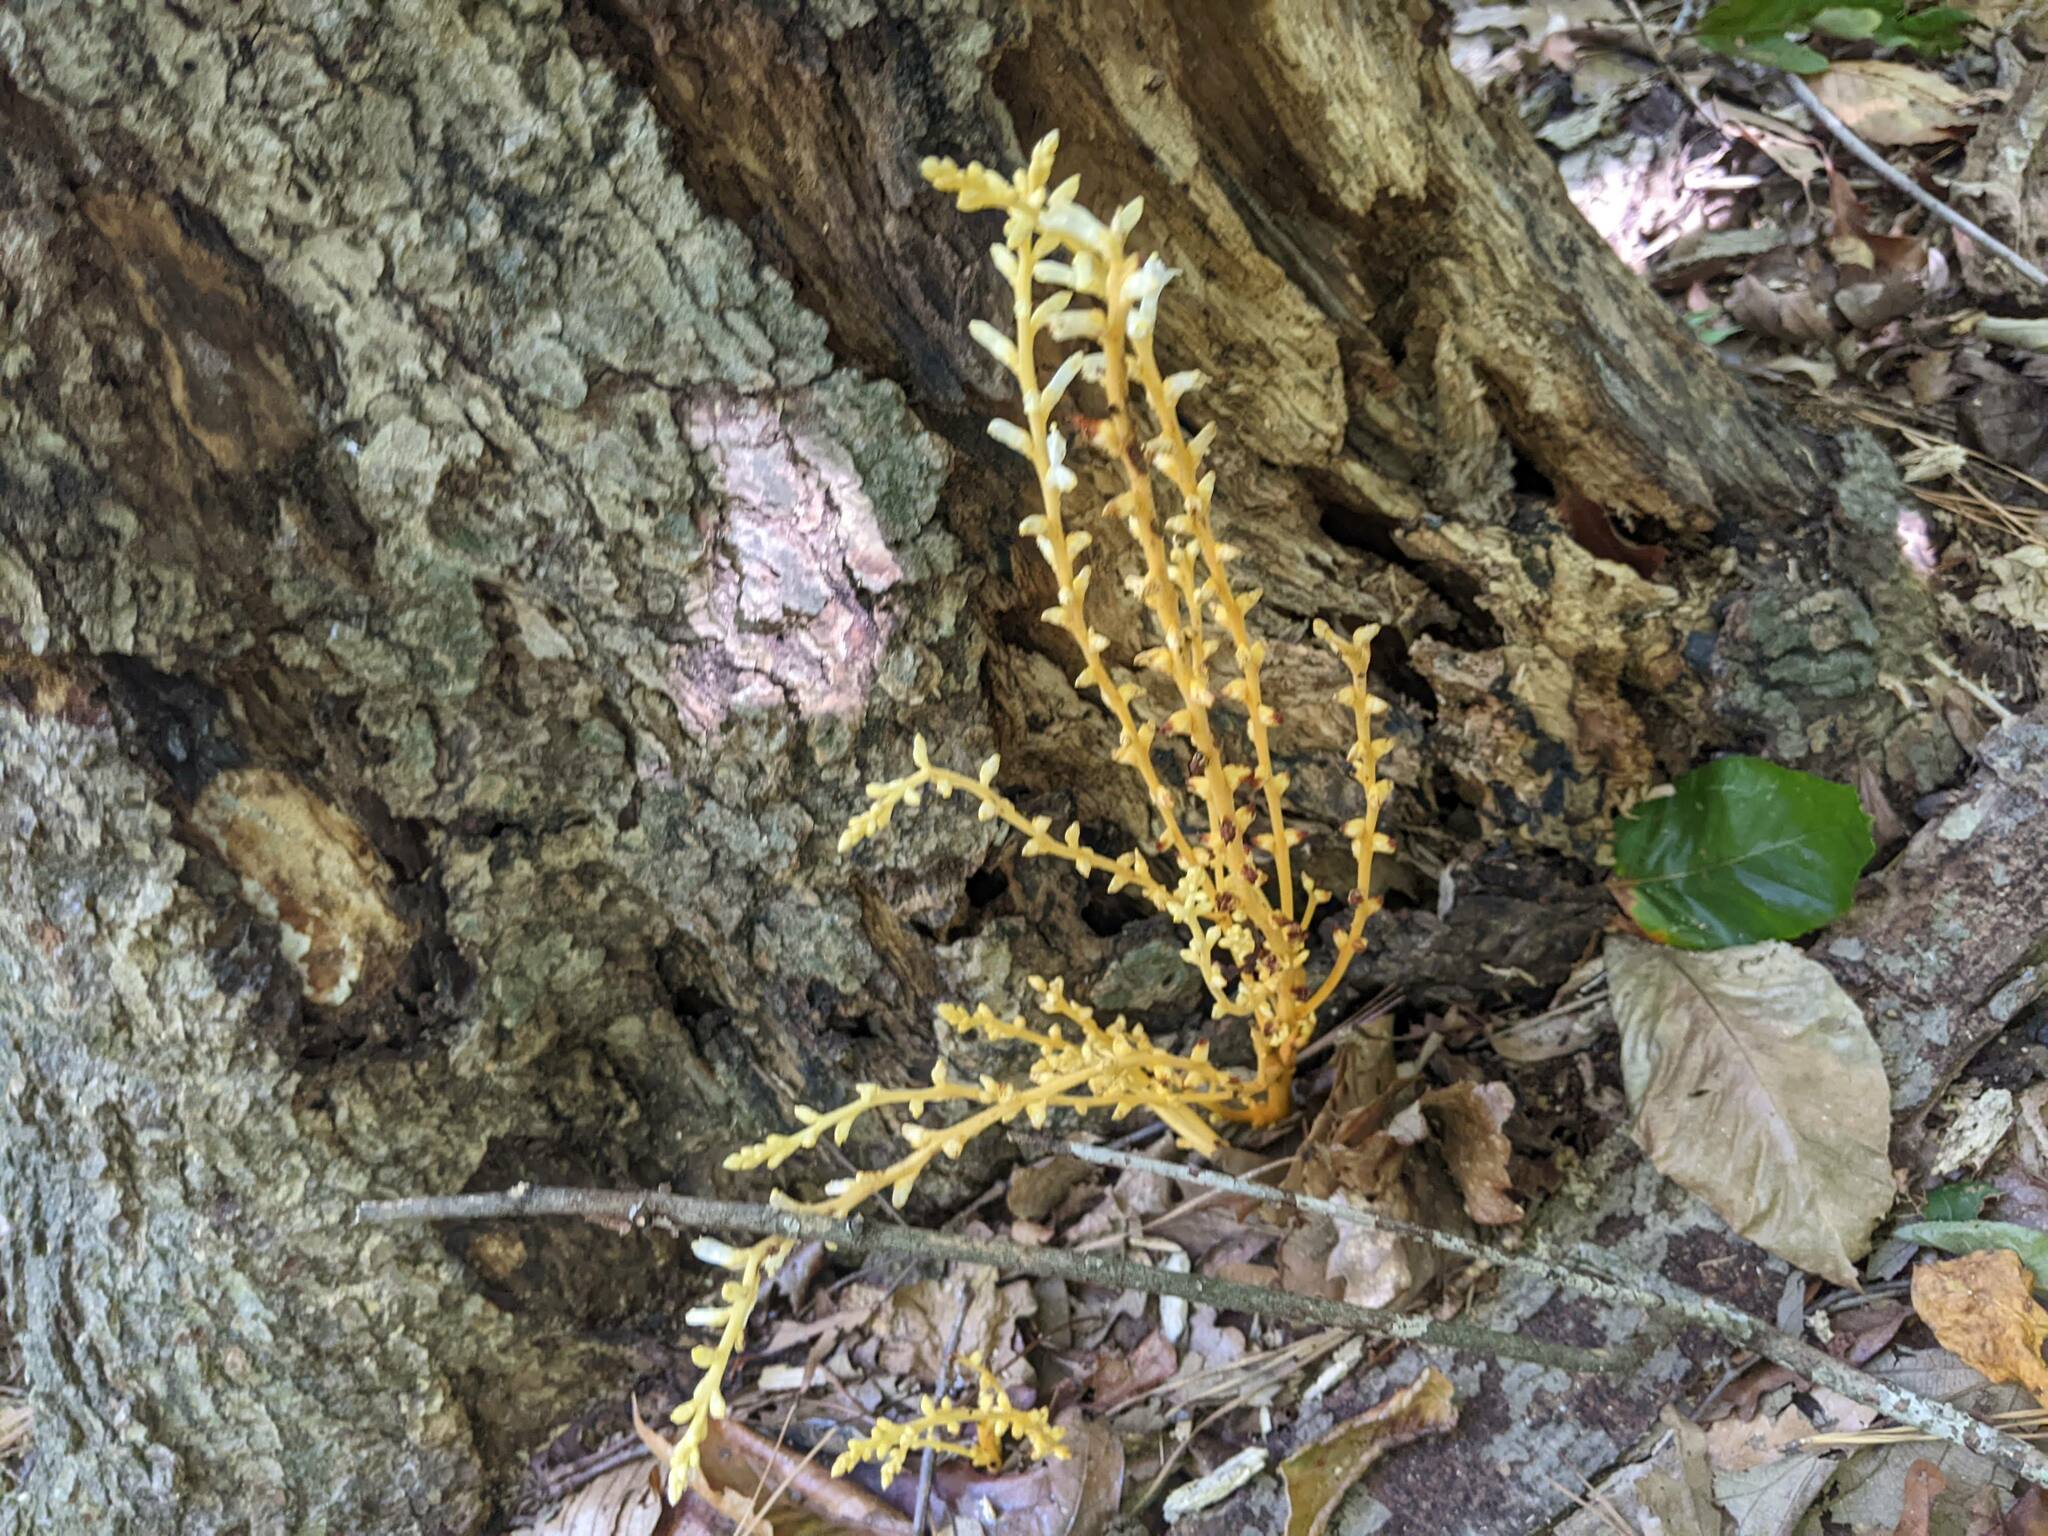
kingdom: Plantae
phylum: Tracheophyta
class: Magnoliopsida
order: Lamiales
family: Orobanchaceae
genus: Epifagus
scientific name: Epifagus virginiana
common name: Beechdrops
